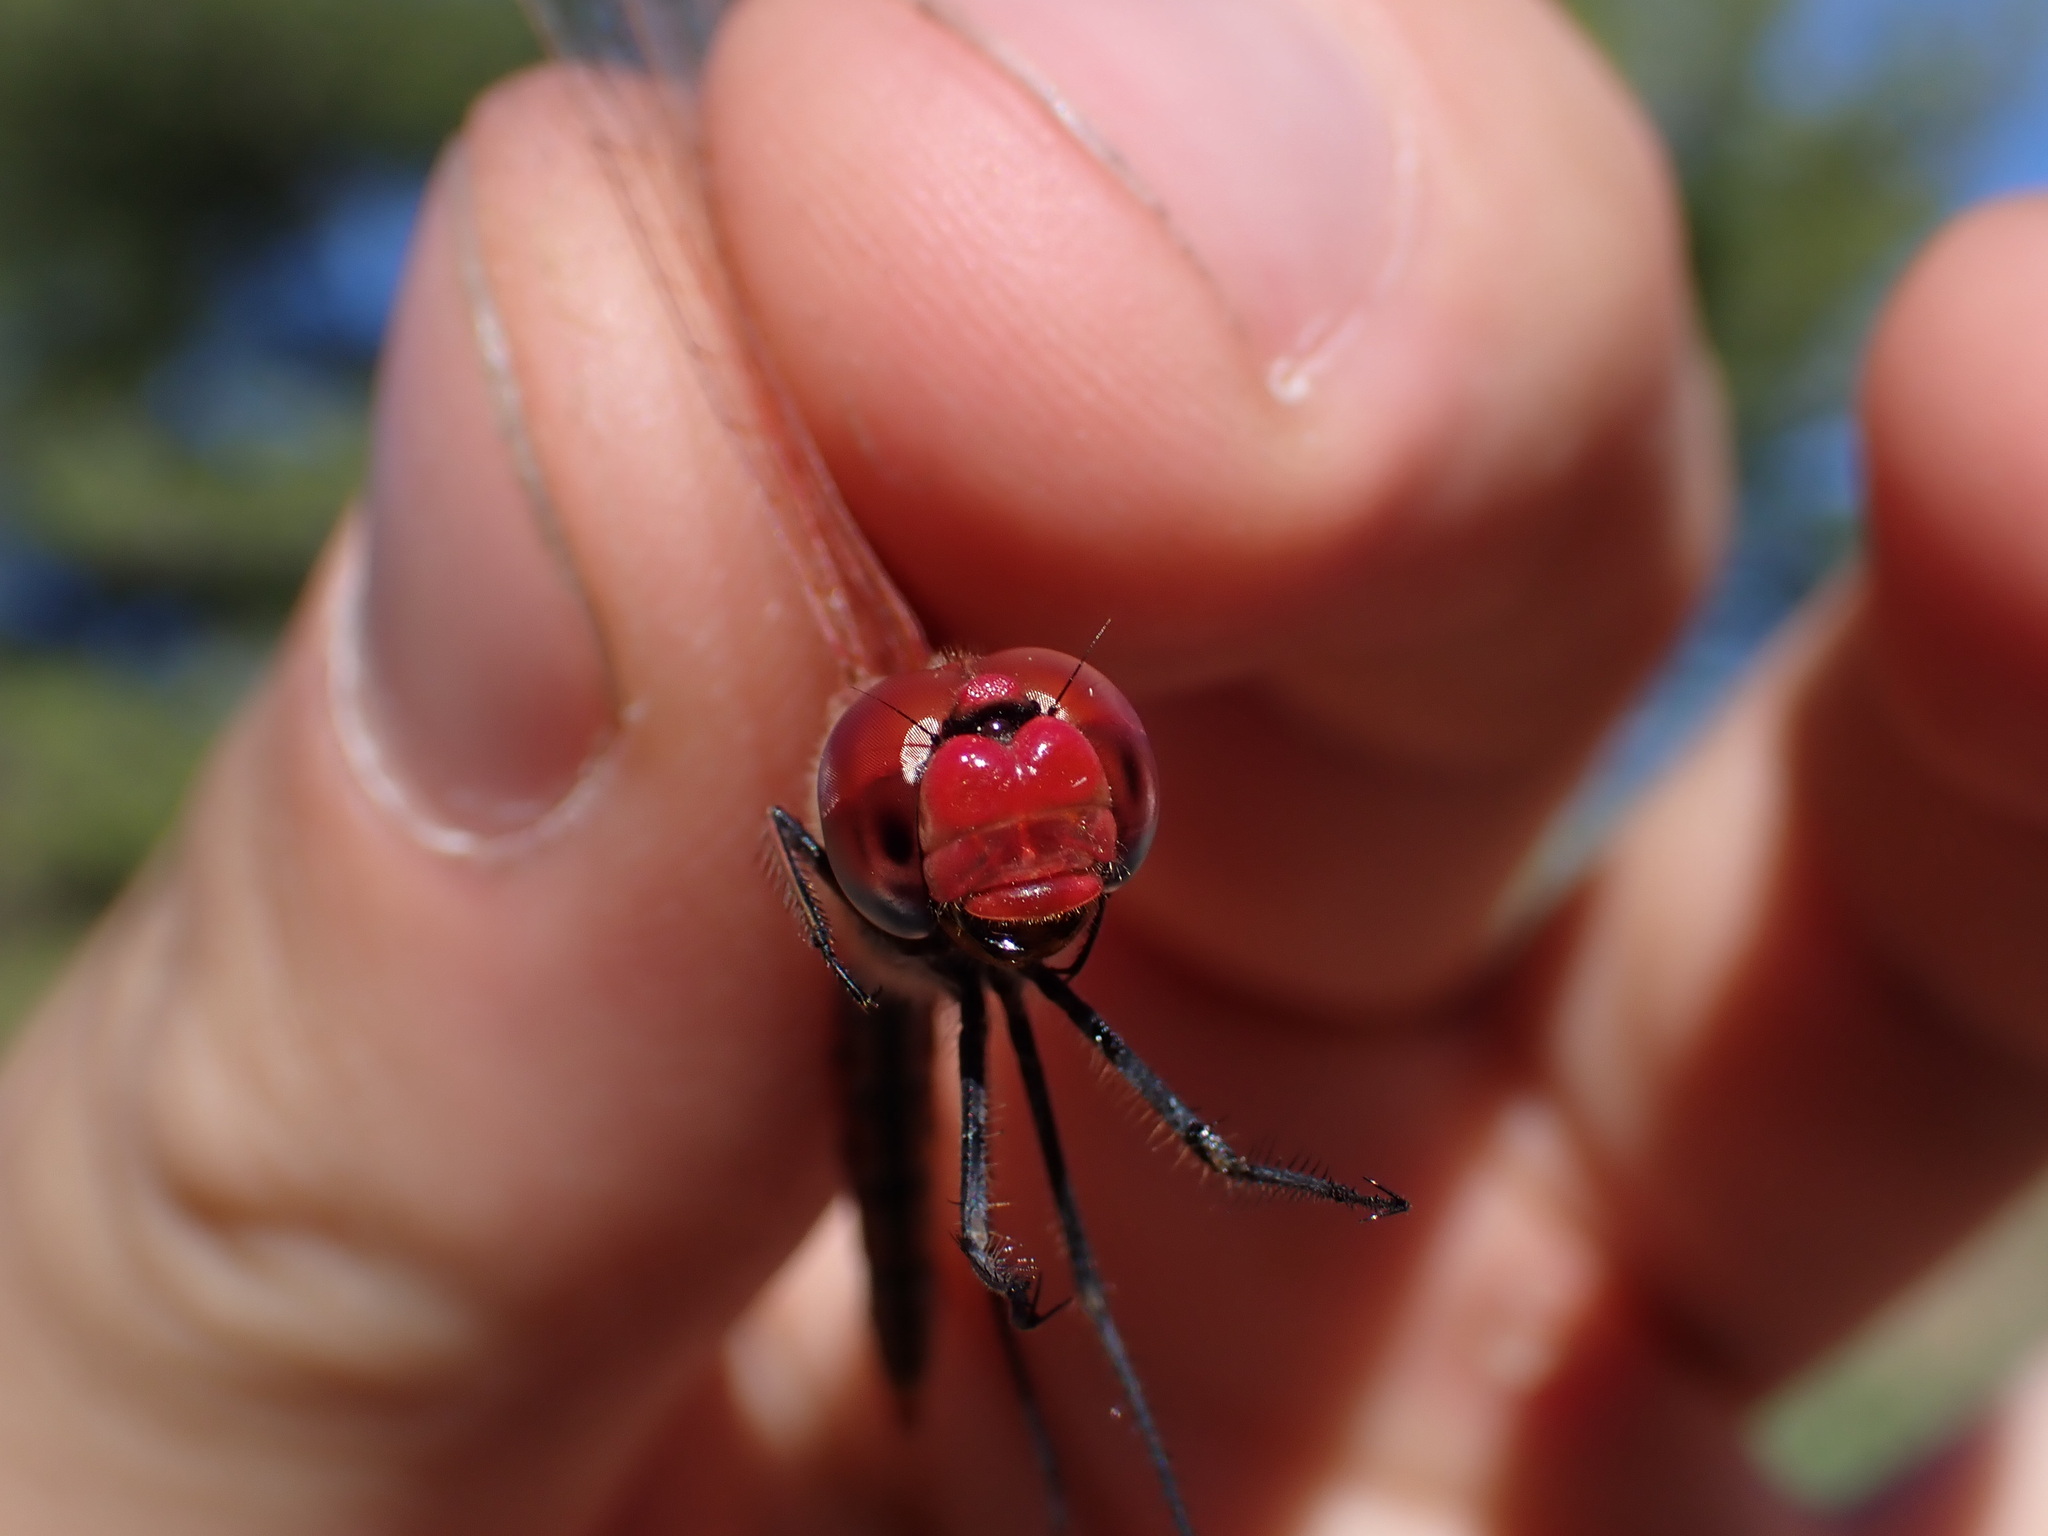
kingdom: Animalia
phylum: Arthropoda
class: Insecta
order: Odonata
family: Libellulidae
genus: Sympetrum
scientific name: Sympetrum fonscolombii
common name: Red-veined darter
